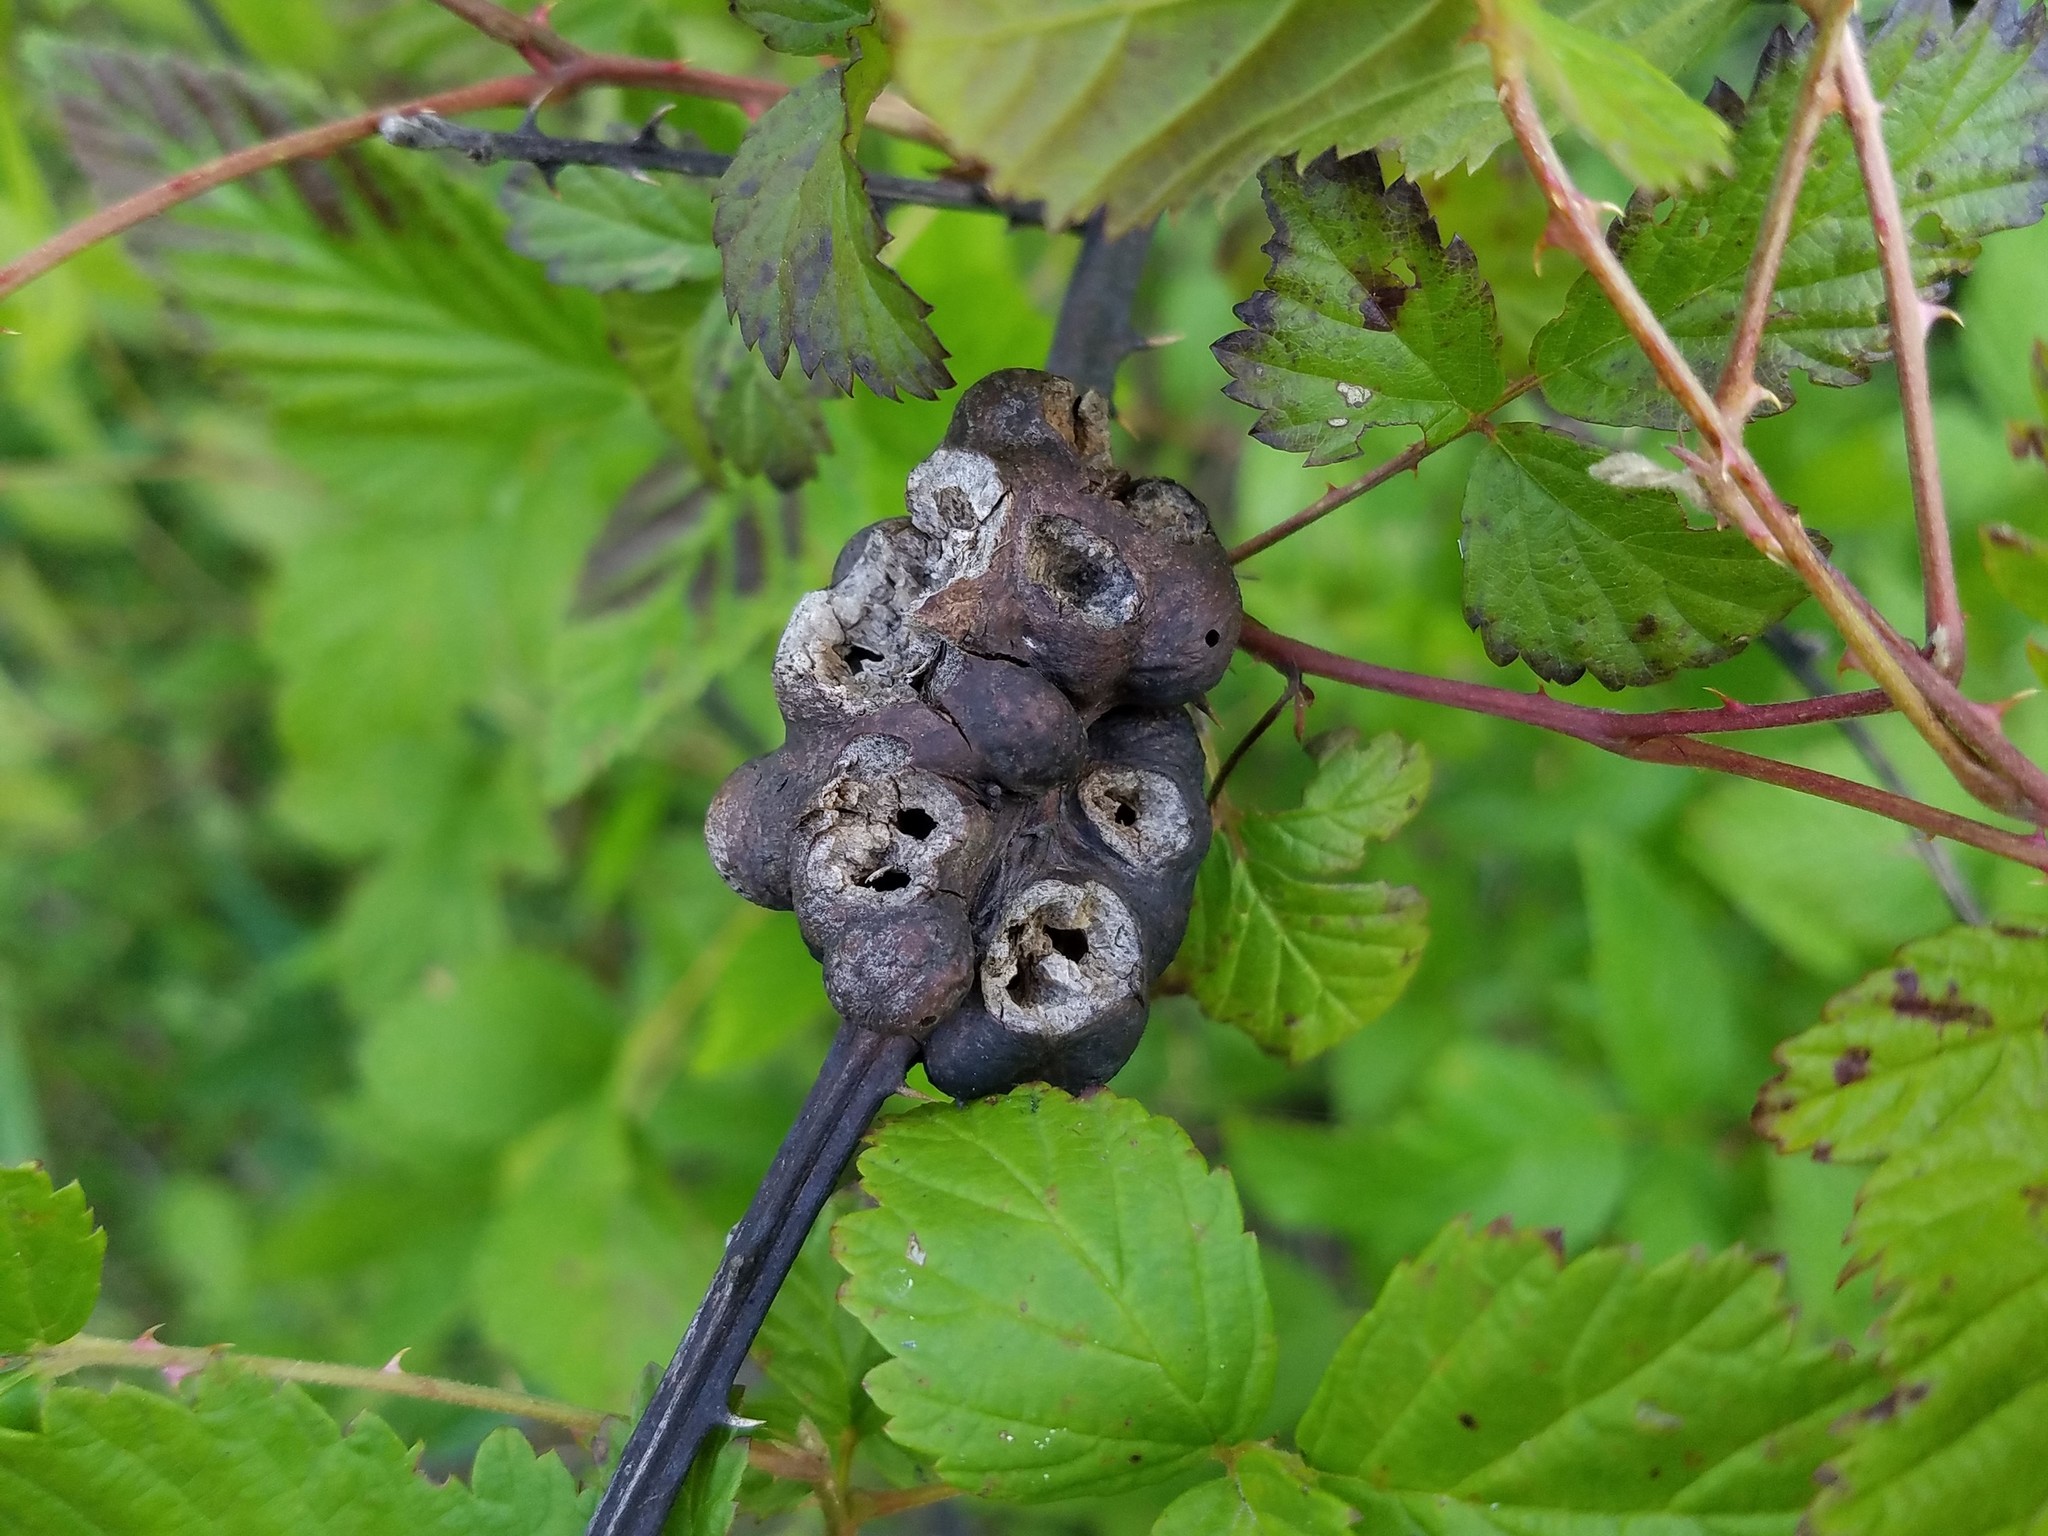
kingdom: Animalia
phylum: Arthropoda
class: Insecta
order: Hymenoptera
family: Cynipidae
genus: Diastrophus
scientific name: Diastrophus
